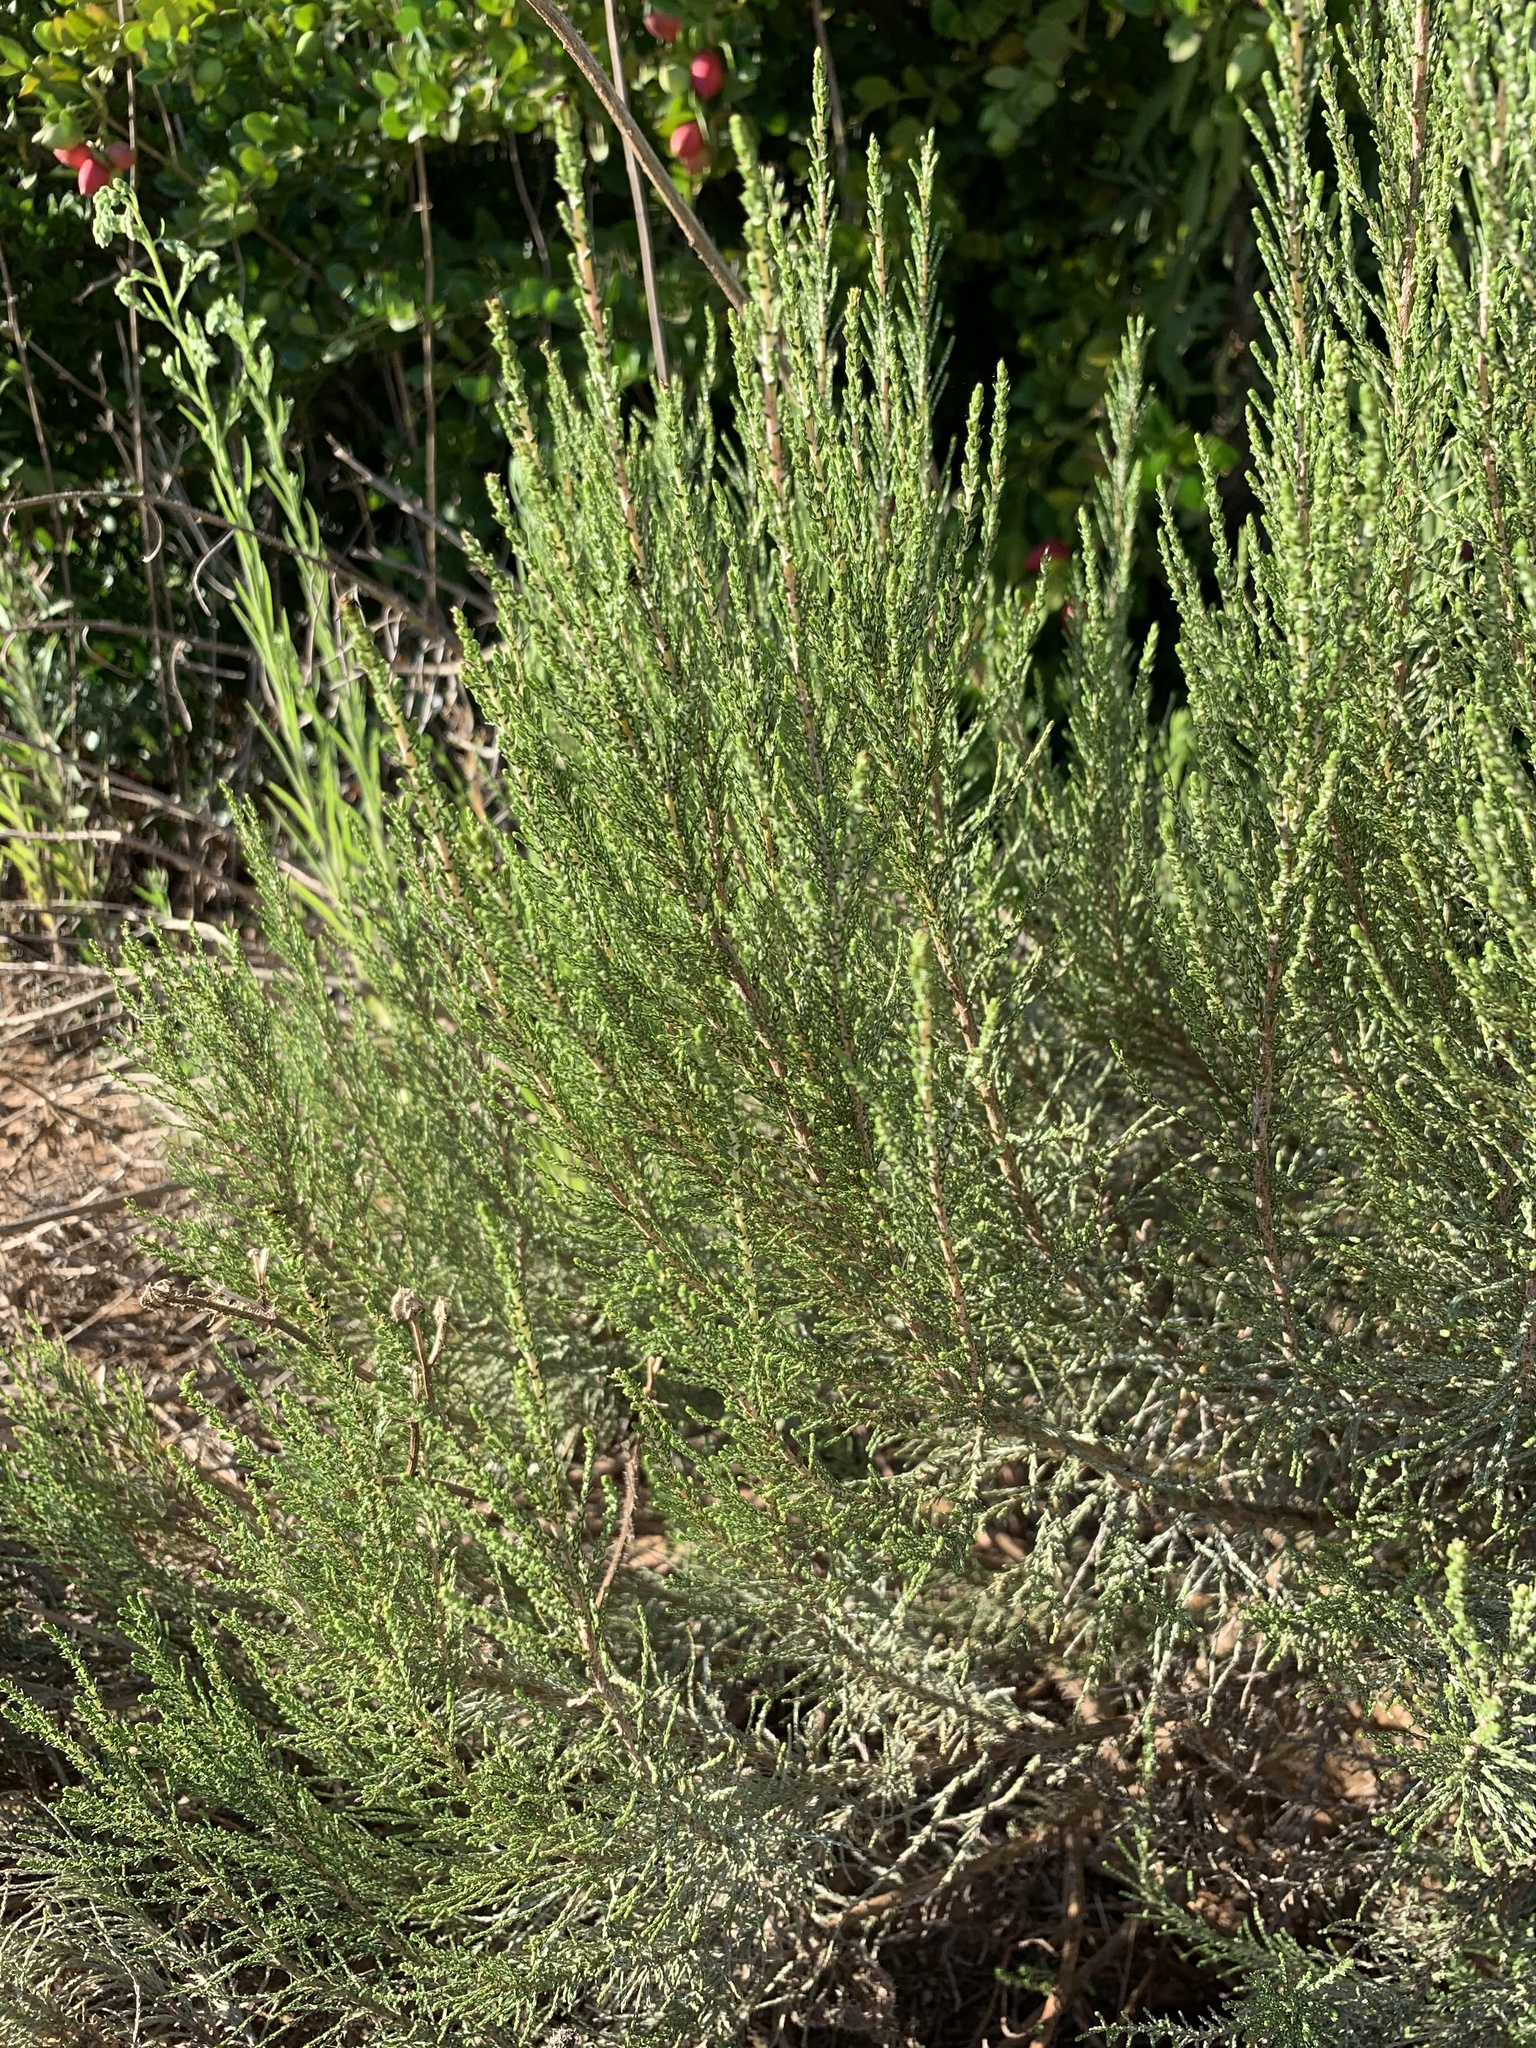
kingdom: Plantae
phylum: Tracheophyta
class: Magnoliopsida
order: Asterales
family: Asteraceae
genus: Dicerothamnus
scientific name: Dicerothamnus rhinocerotis
